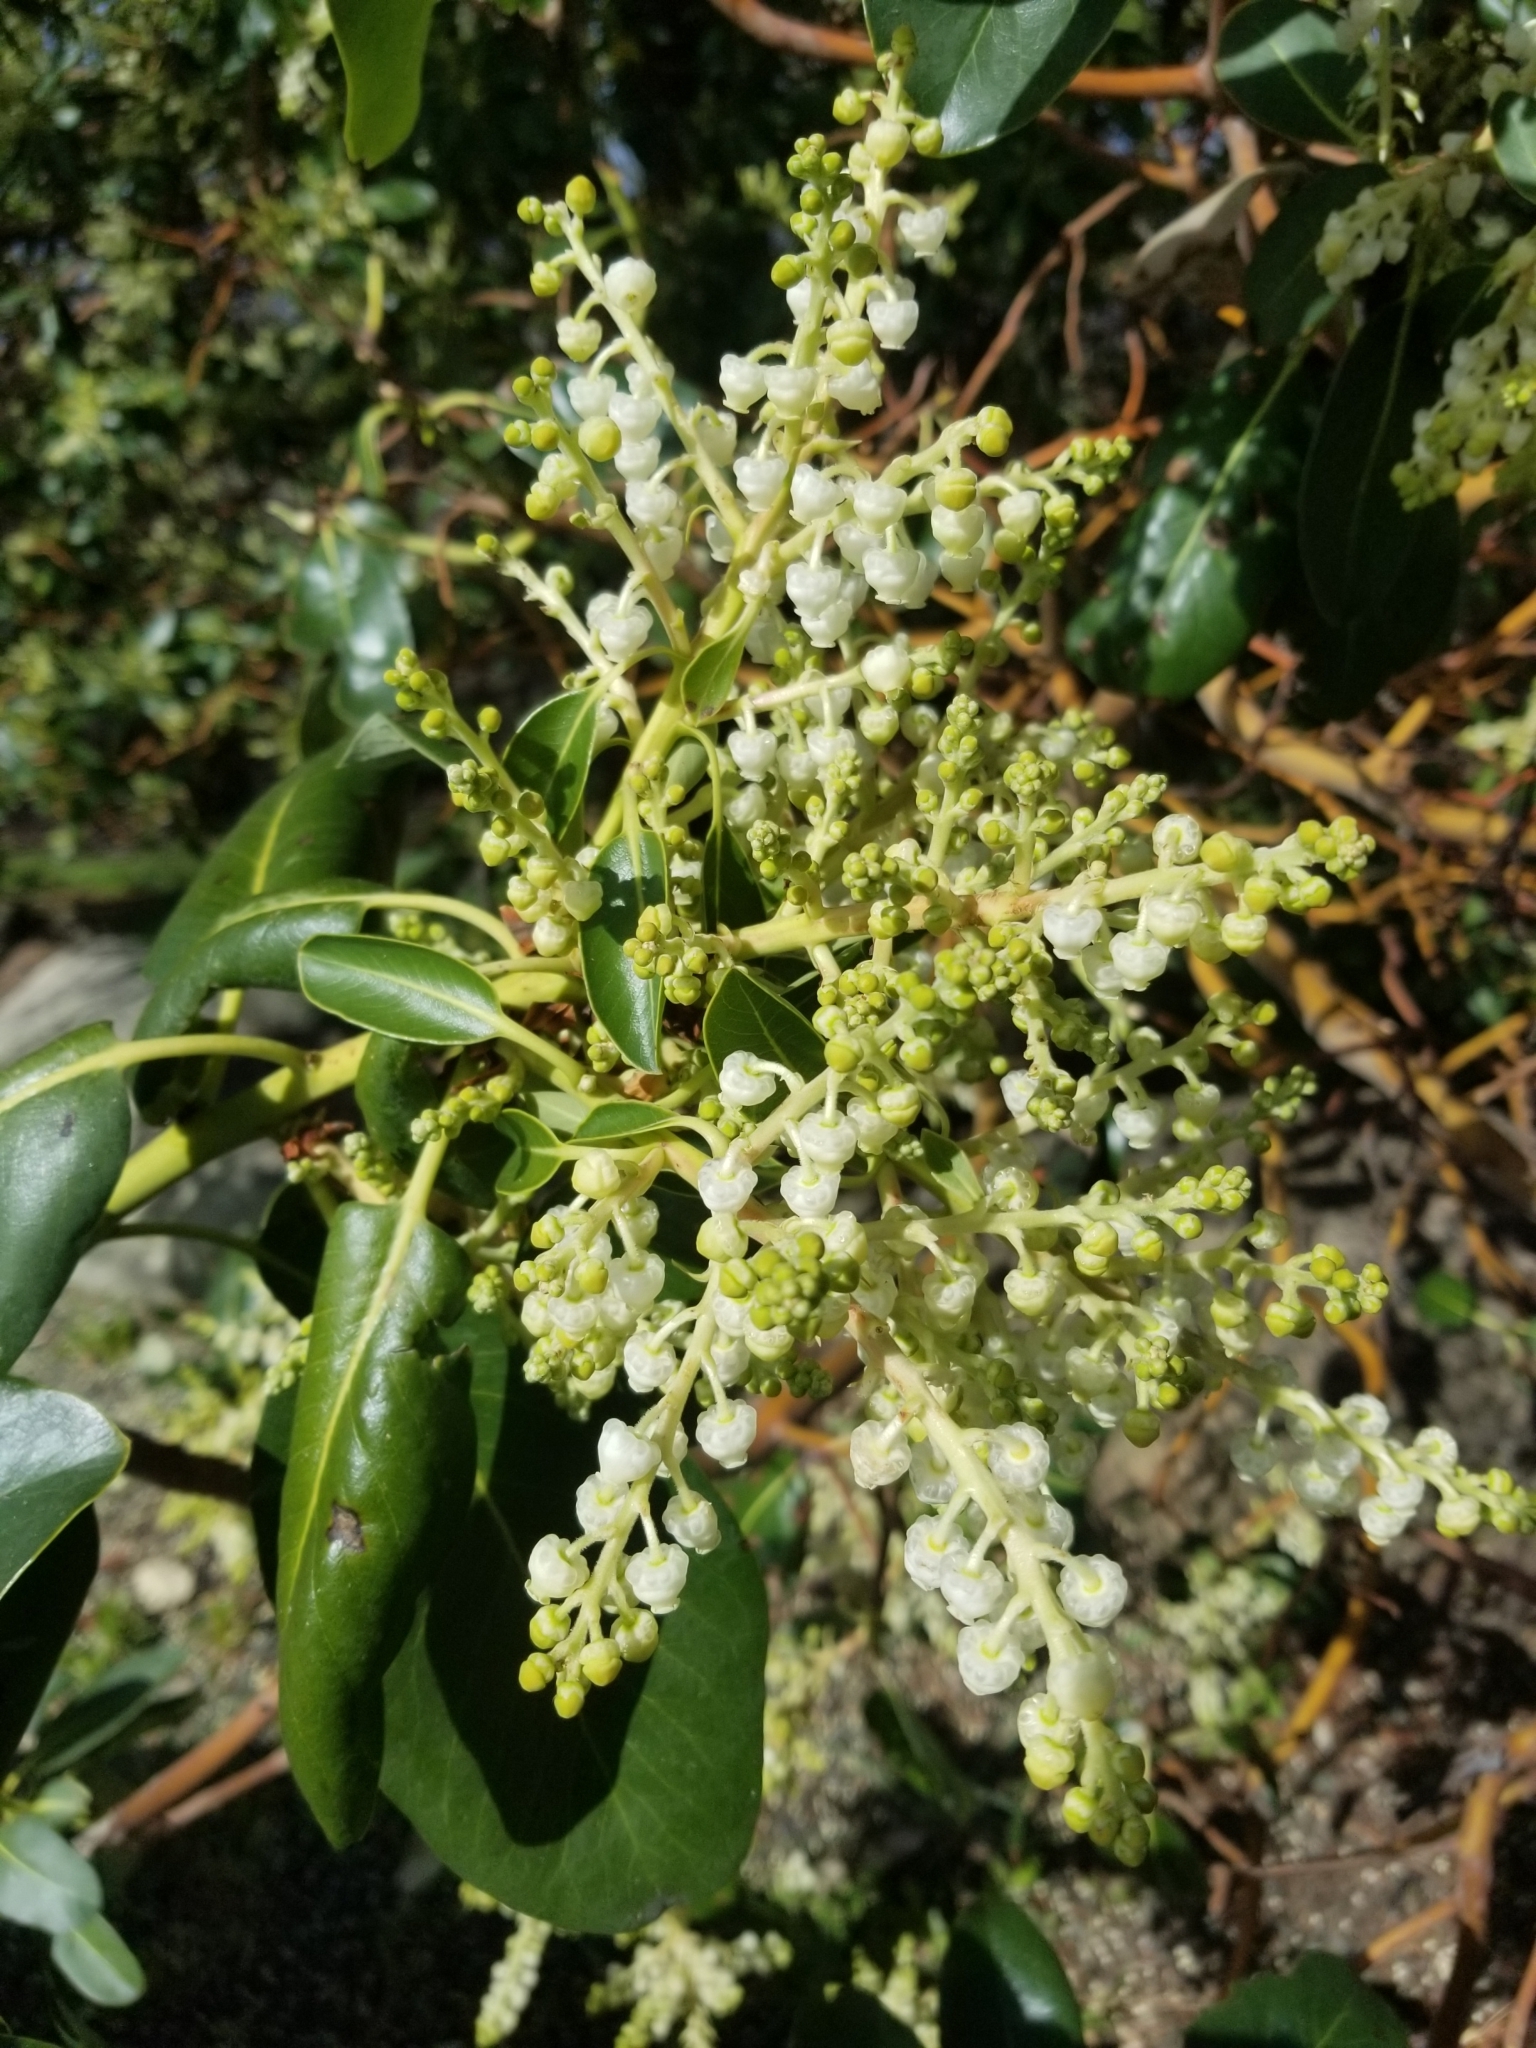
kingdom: Plantae
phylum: Tracheophyta
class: Magnoliopsida
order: Ericales
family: Ericaceae
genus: Arbutus
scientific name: Arbutus menziesii
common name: Pacific madrone
